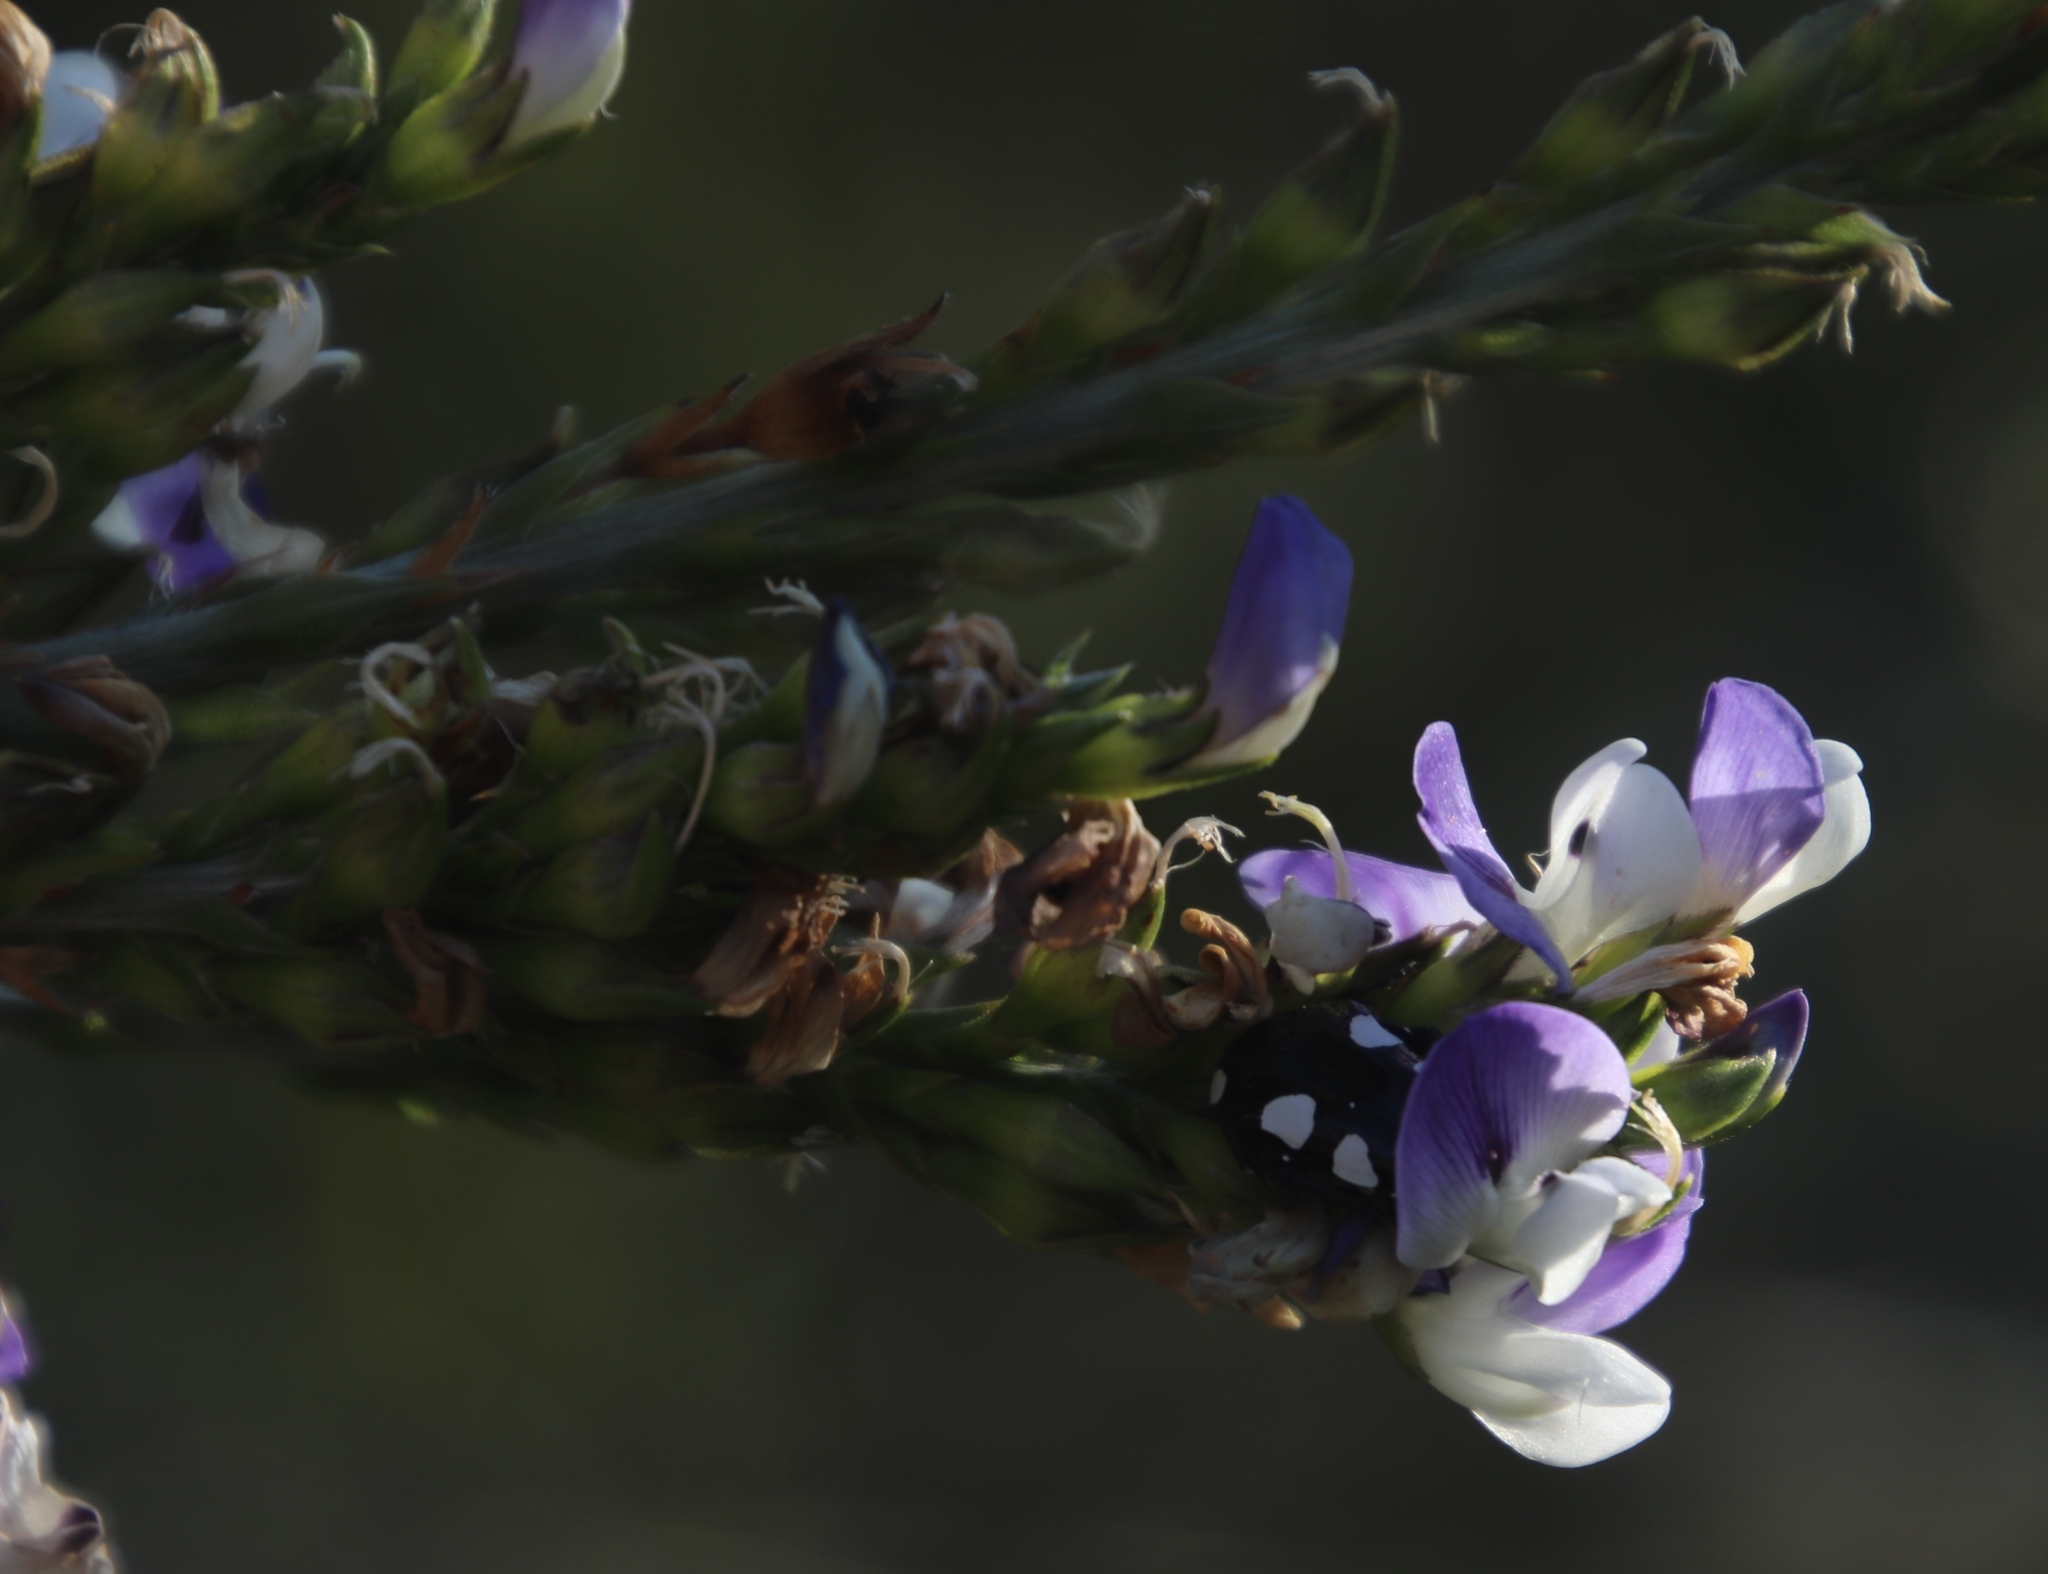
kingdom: Plantae
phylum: Tracheophyta
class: Magnoliopsida
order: Fabales
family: Fabaceae
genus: Psoralea
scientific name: Psoralea aphylla
